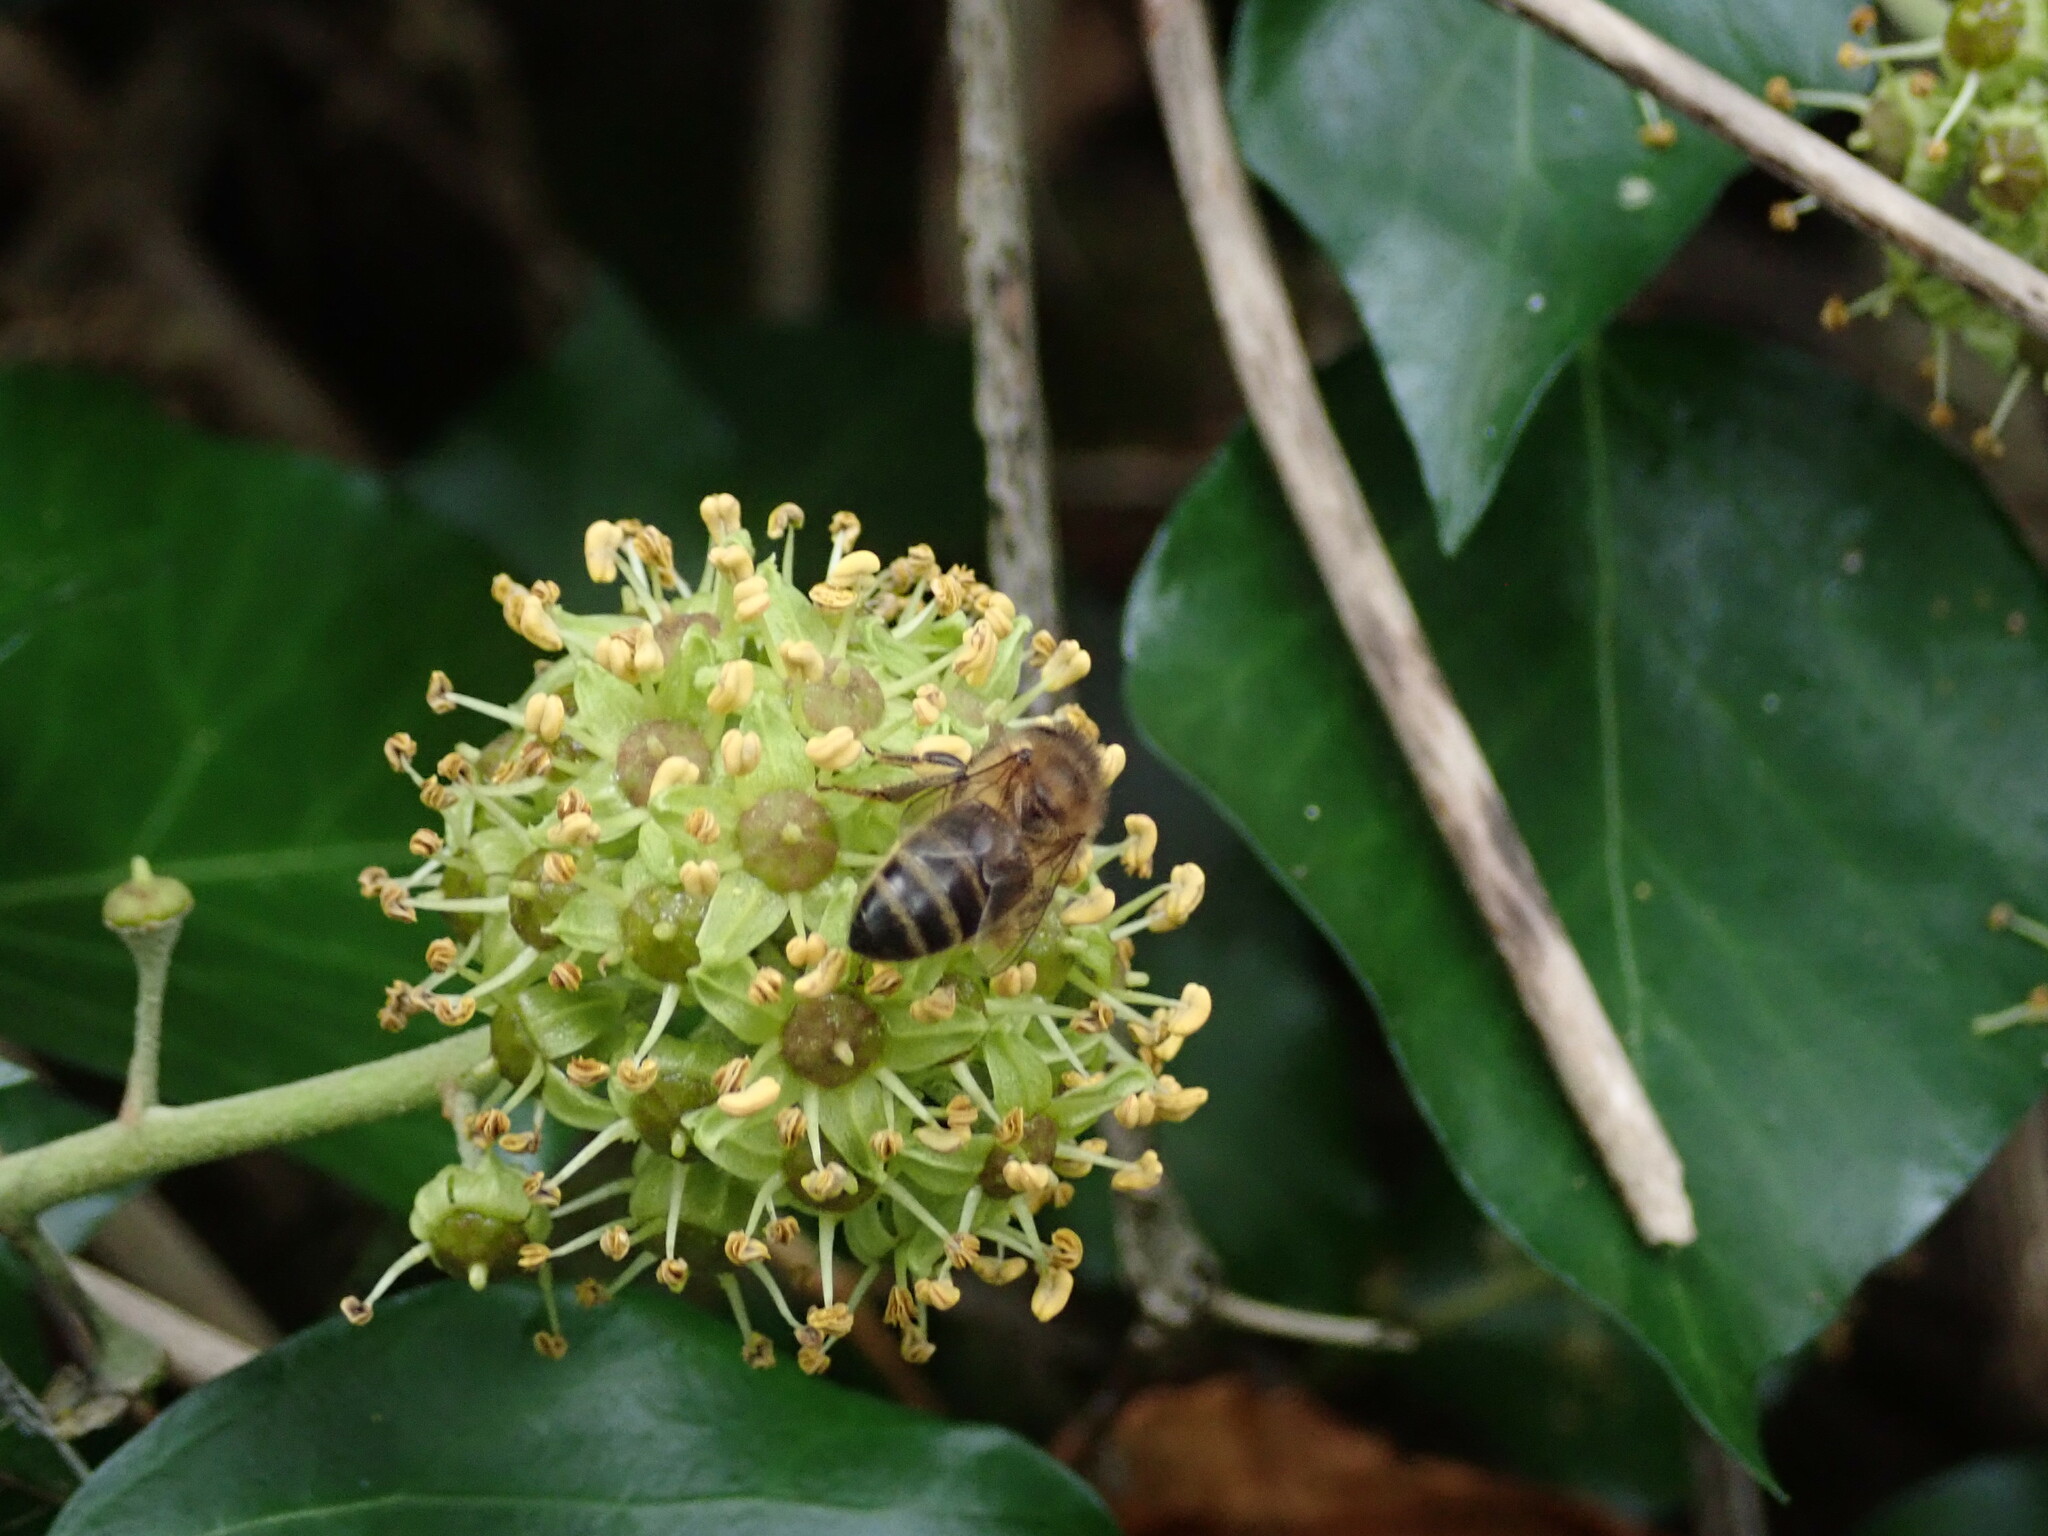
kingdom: Animalia
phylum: Arthropoda
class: Insecta
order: Hymenoptera
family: Apidae
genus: Apis
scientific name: Apis mellifera
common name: Honey bee
